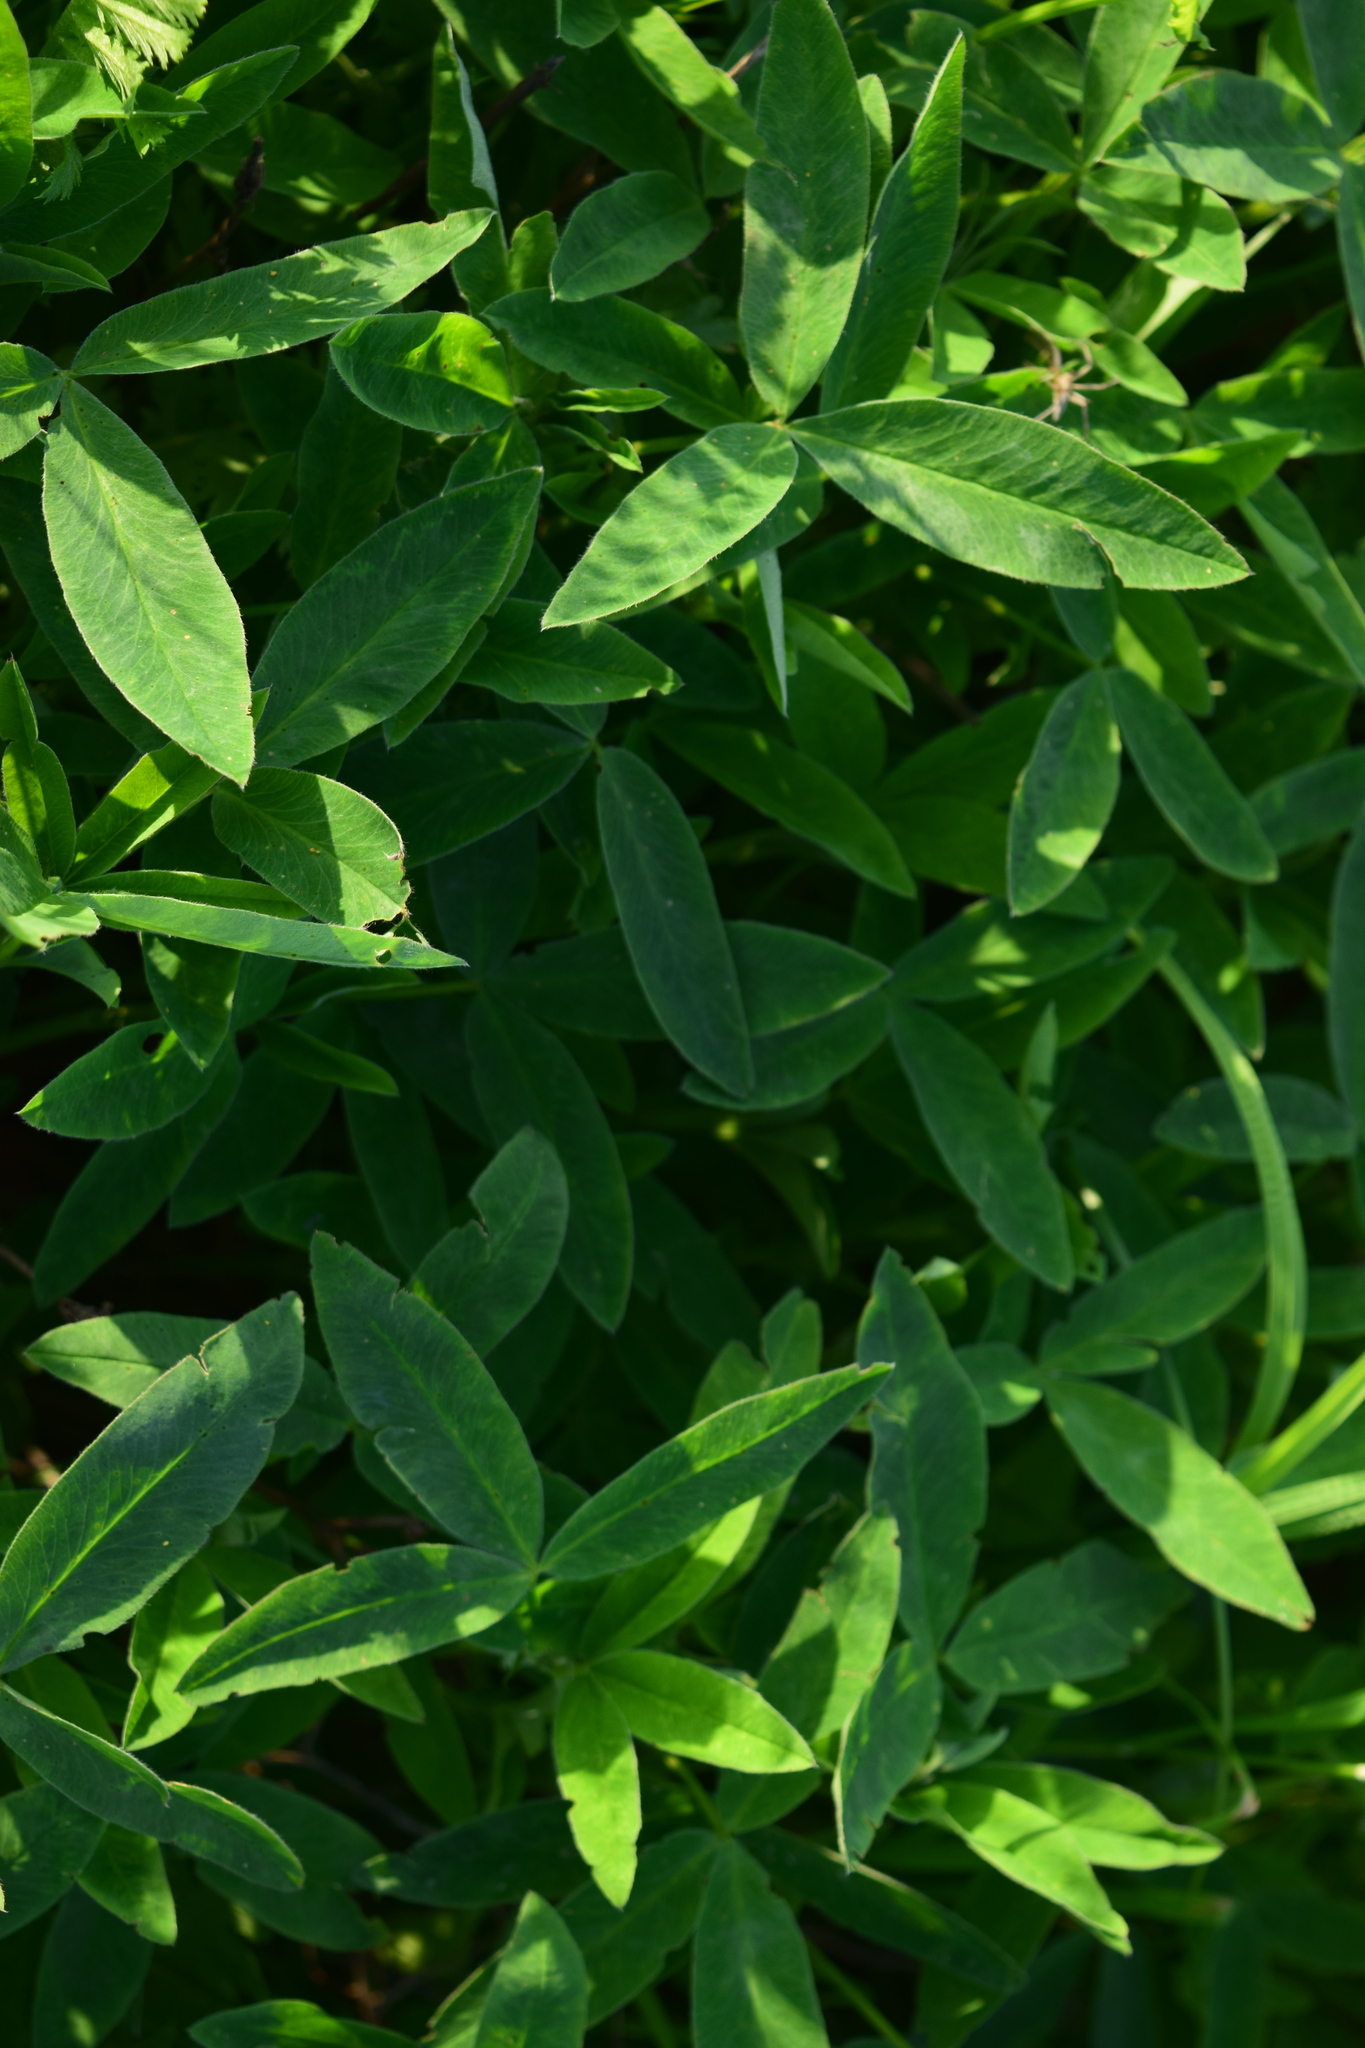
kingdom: Plantae
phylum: Tracheophyta
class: Magnoliopsida
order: Fabales
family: Fabaceae
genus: Trifolium
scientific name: Trifolium medium
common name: Zigzag clover
